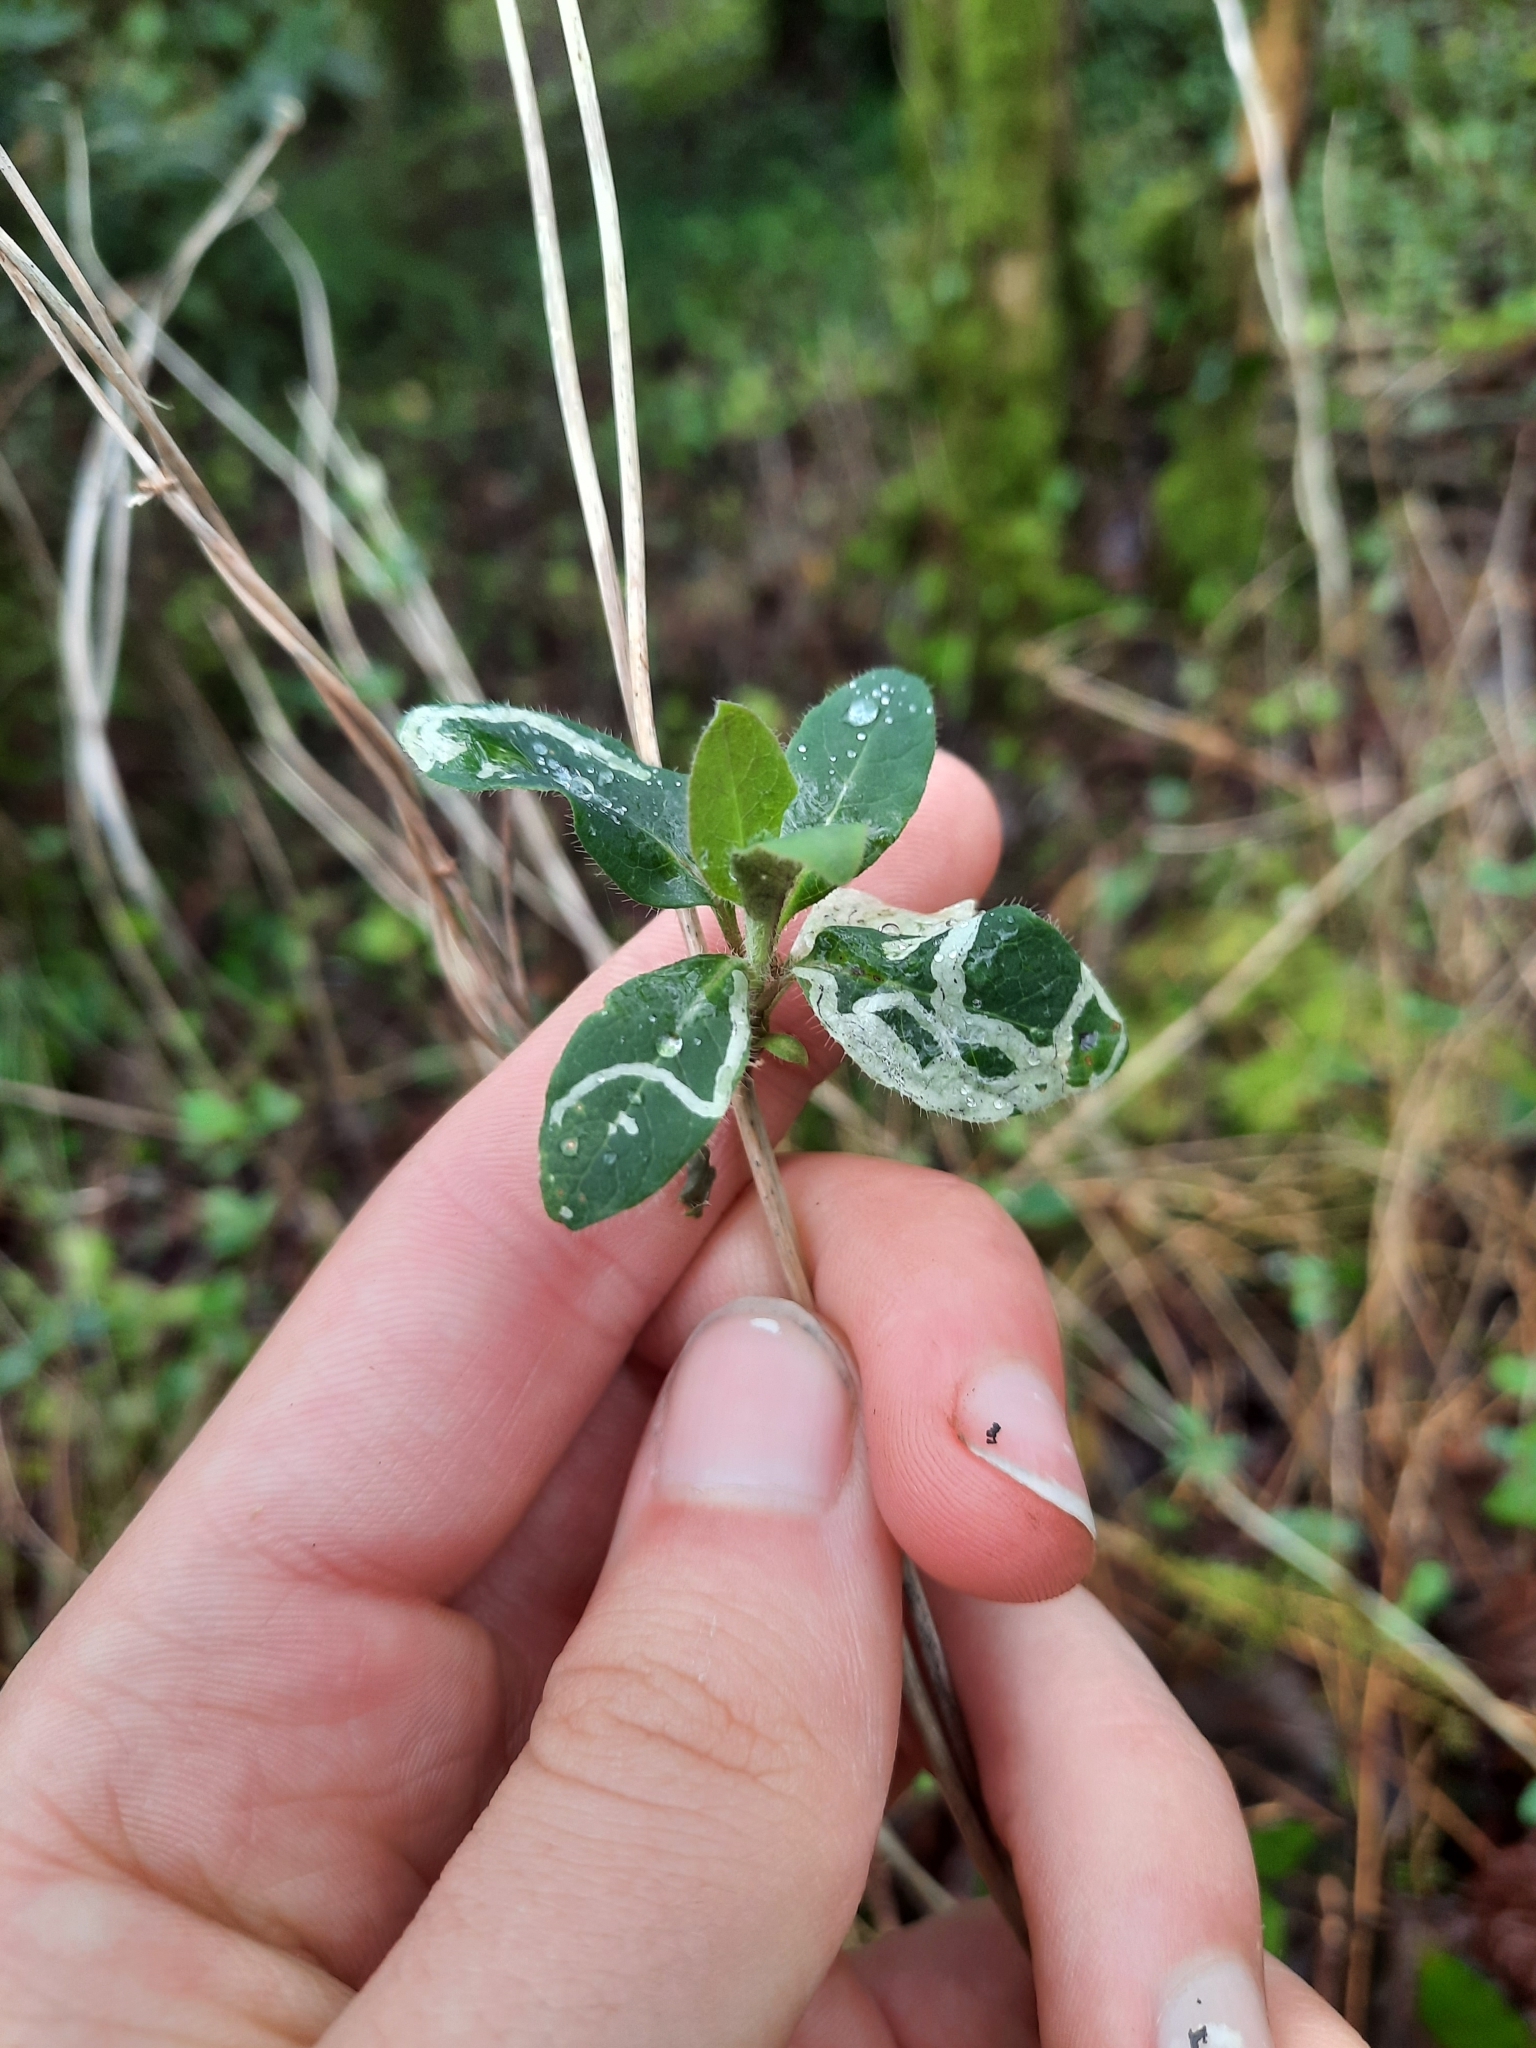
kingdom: Plantae
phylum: Tracheophyta
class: Magnoliopsida
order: Dipsacales
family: Caprifoliaceae
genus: Lonicera
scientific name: Lonicera periclymenum
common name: European honeysuckle
